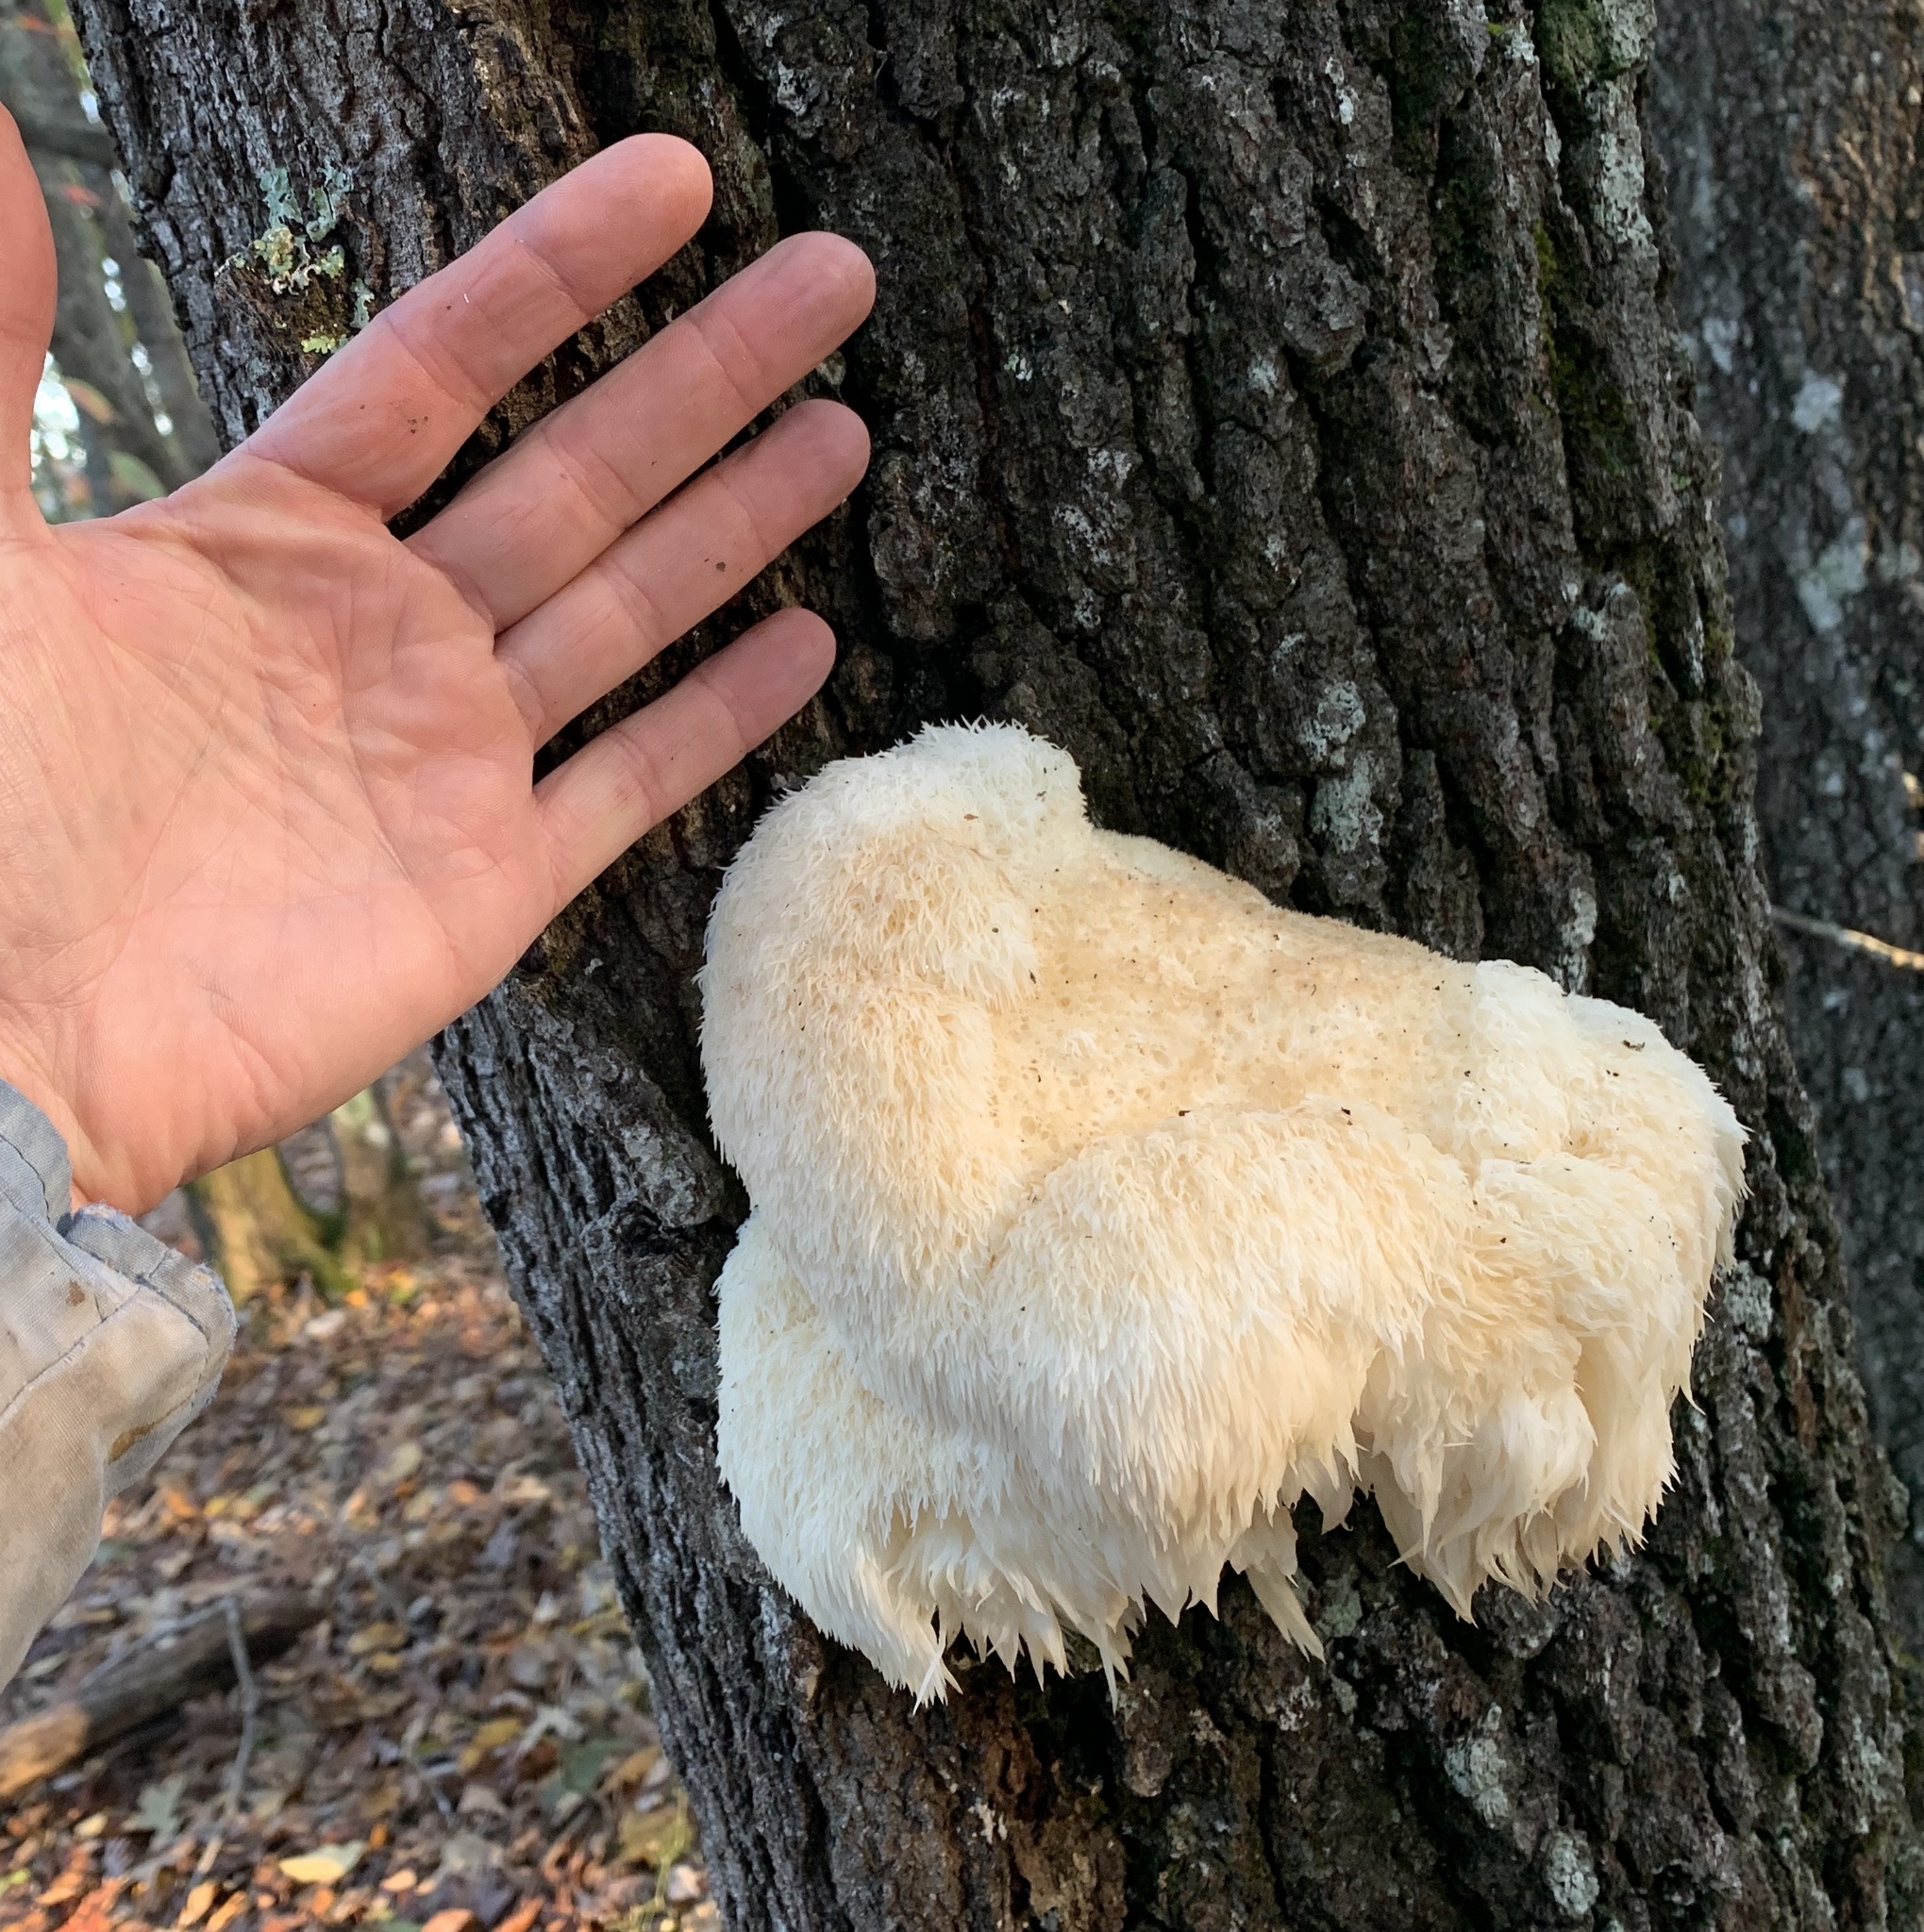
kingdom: Fungi
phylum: Basidiomycota
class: Agaricomycetes
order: Russulales
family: Hericiaceae
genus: Hericium
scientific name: Hericium erinaceus
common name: Bearded tooth
